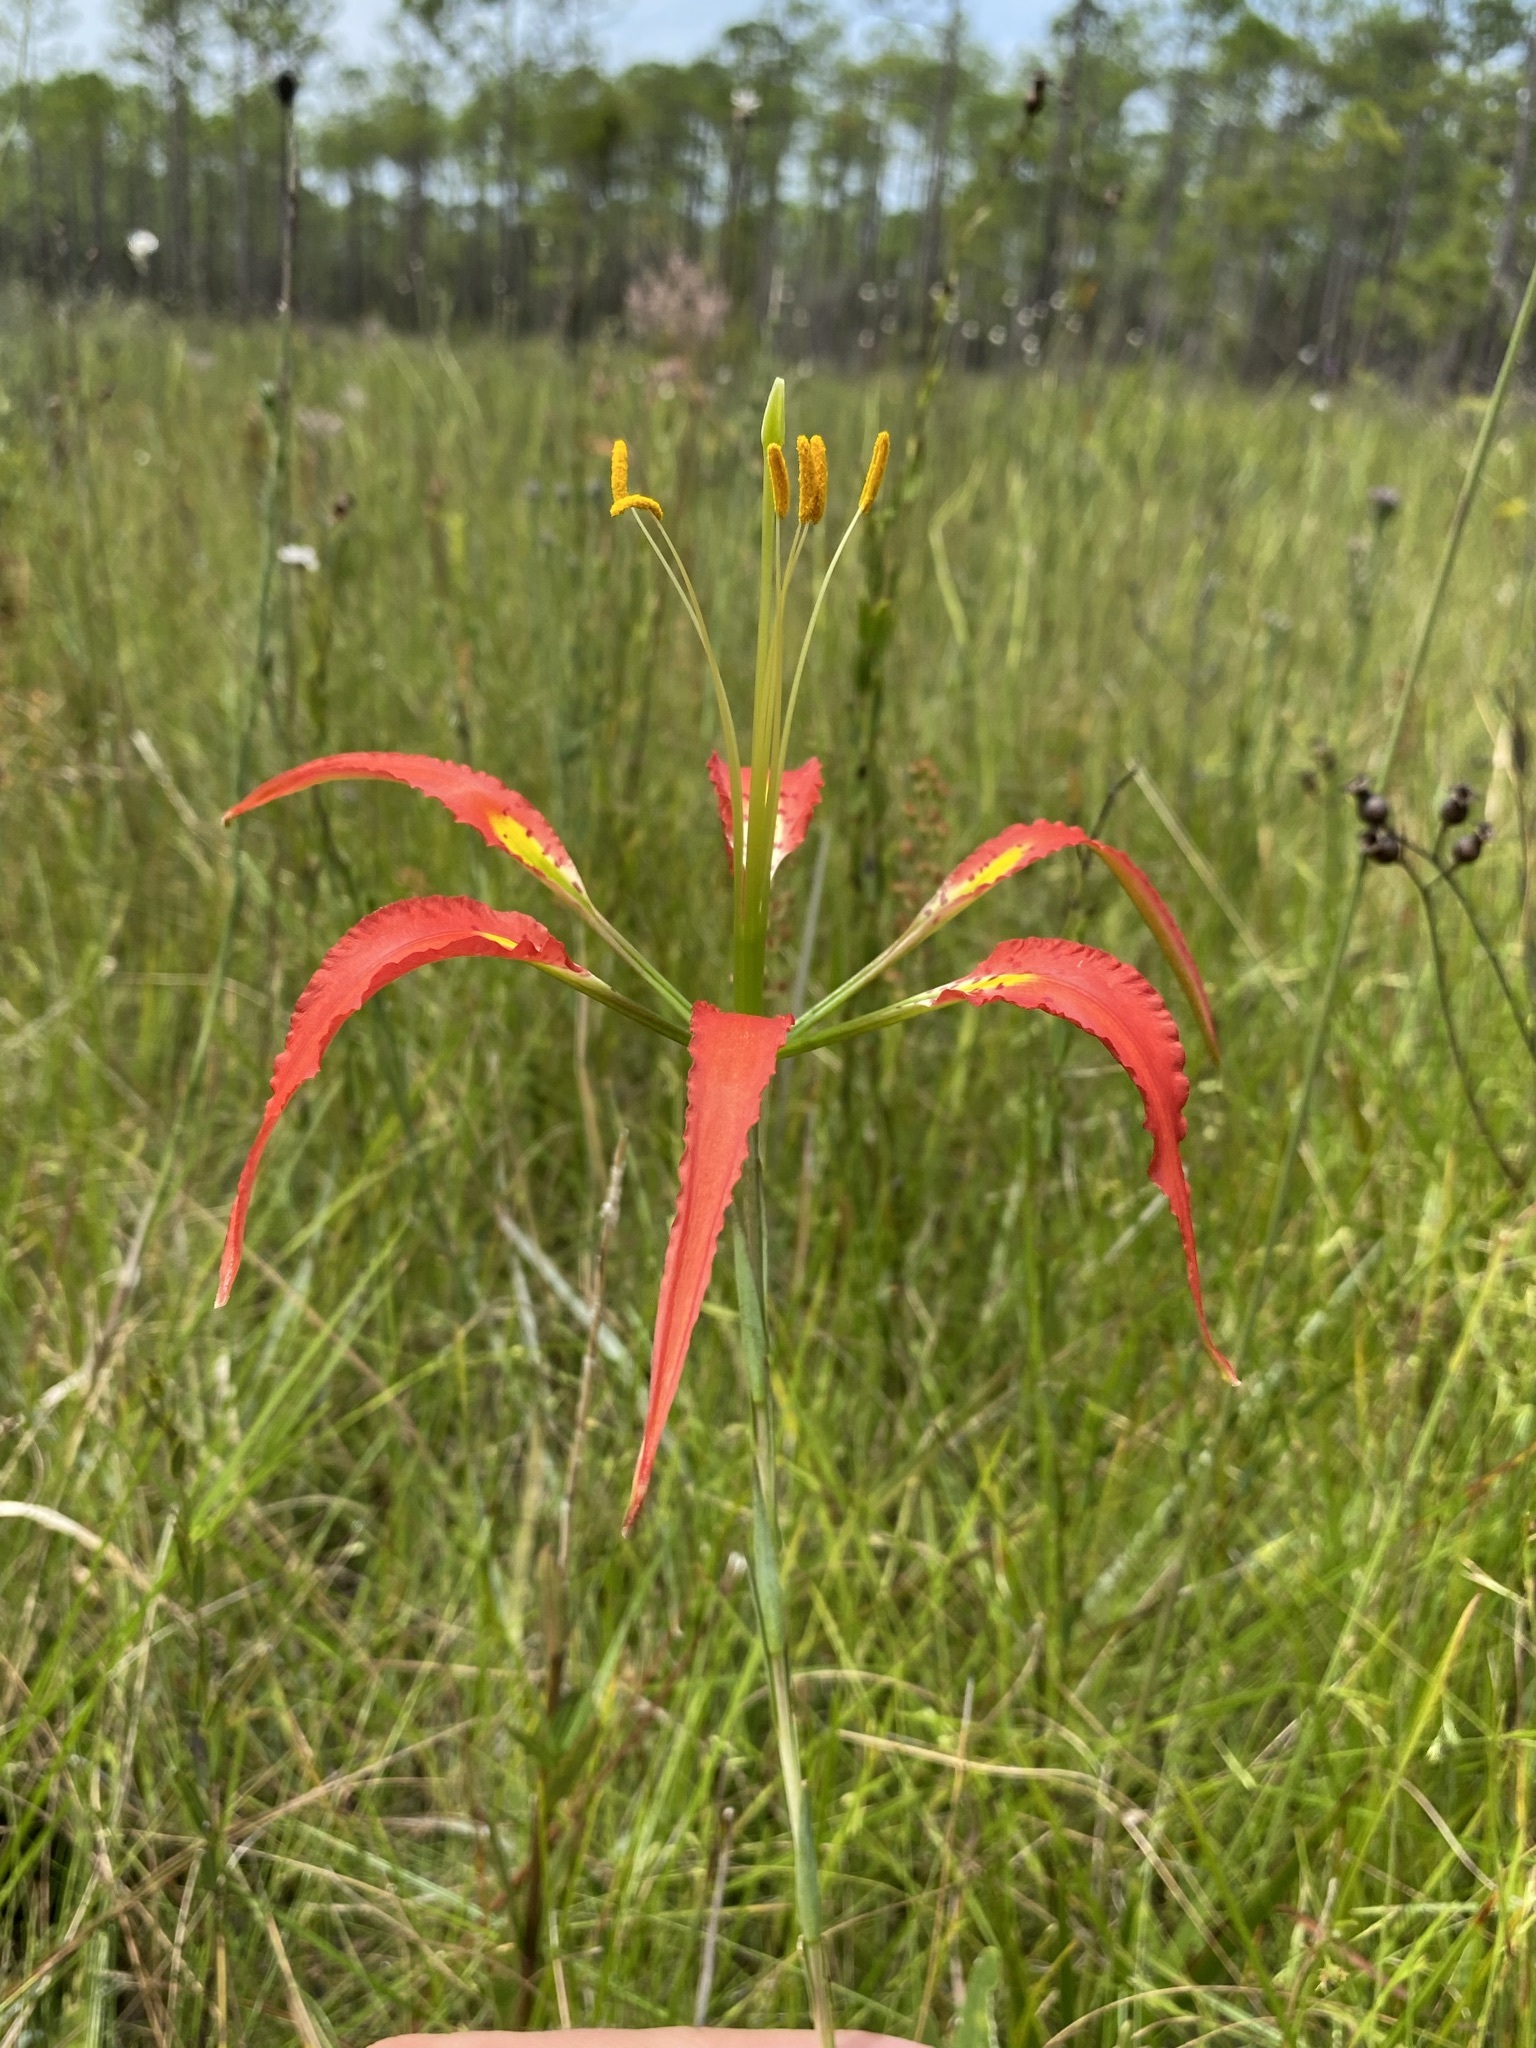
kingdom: Plantae
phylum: Tracheophyta
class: Liliopsida
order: Liliales
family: Liliaceae
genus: Lilium
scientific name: Lilium catesbaei
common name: Catesby's lily
